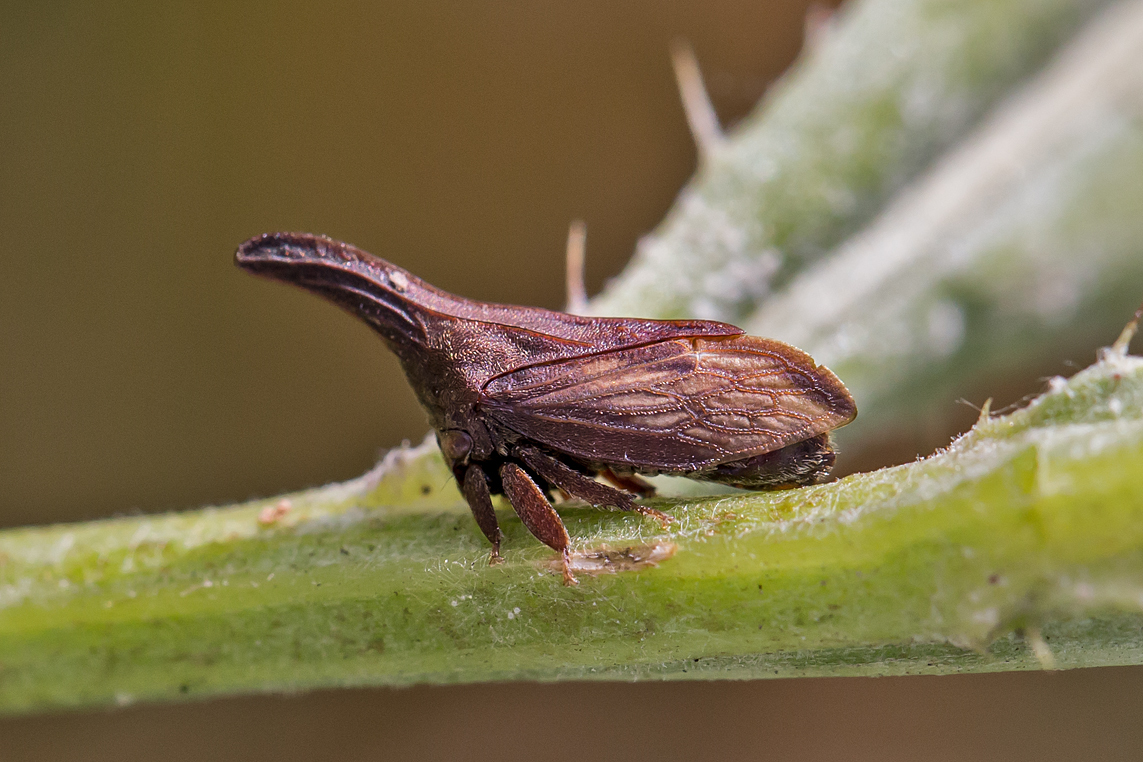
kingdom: Animalia
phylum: Arthropoda
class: Insecta
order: Hemiptera
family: Membracidae
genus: Enchenopa
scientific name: Enchenopa latipes
